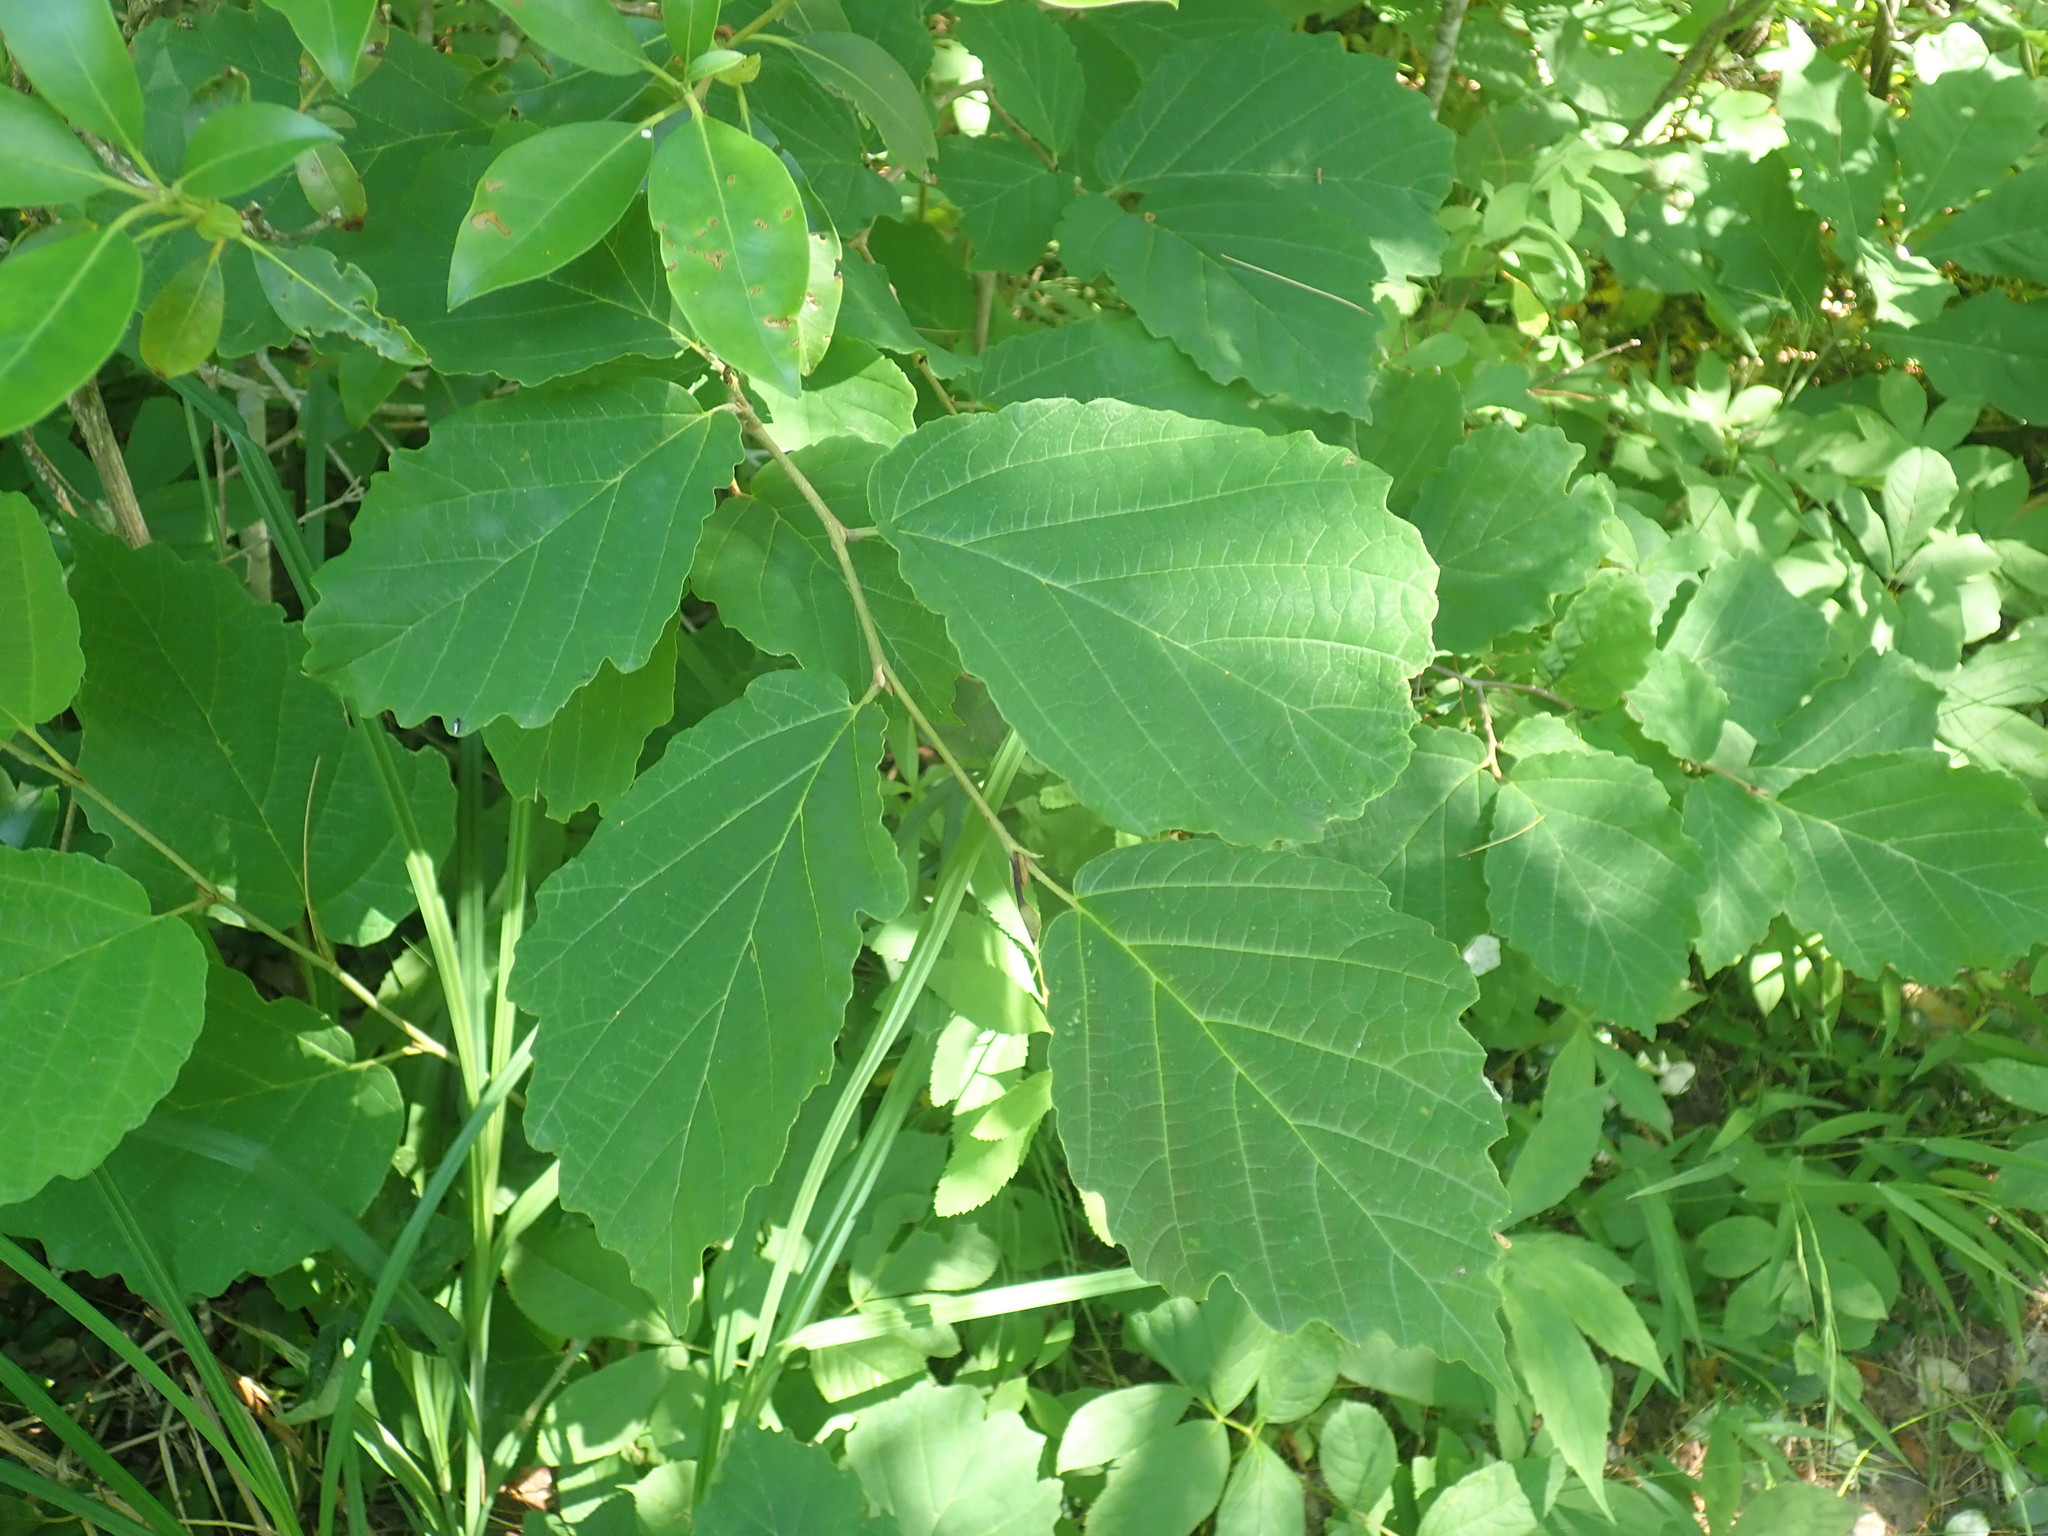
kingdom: Plantae
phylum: Tracheophyta
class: Magnoliopsida
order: Saxifragales
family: Hamamelidaceae
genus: Hamamelis
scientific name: Hamamelis virginiana
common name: Witch-hazel
